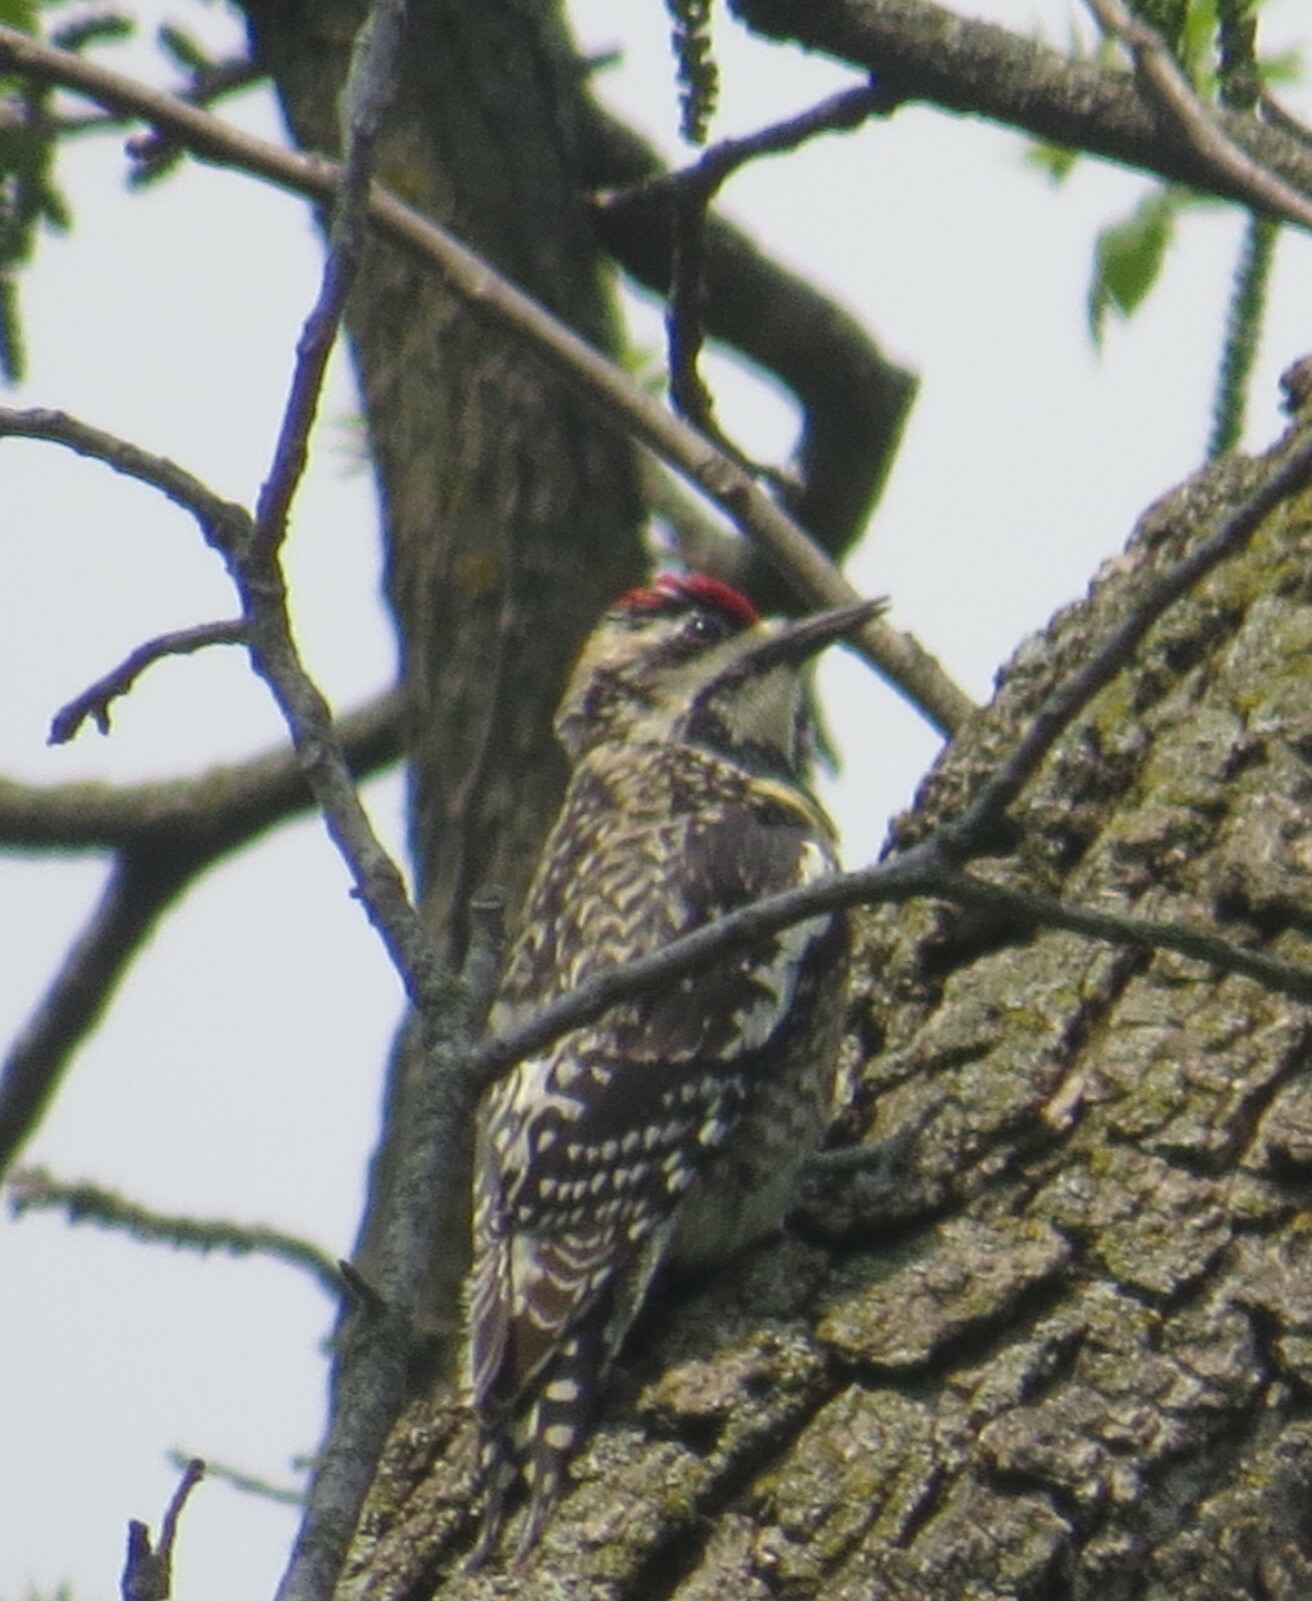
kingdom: Animalia
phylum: Chordata
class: Aves
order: Piciformes
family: Picidae
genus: Sphyrapicus
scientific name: Sphyrapicus varius
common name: Yellow-bellied sapsucker
